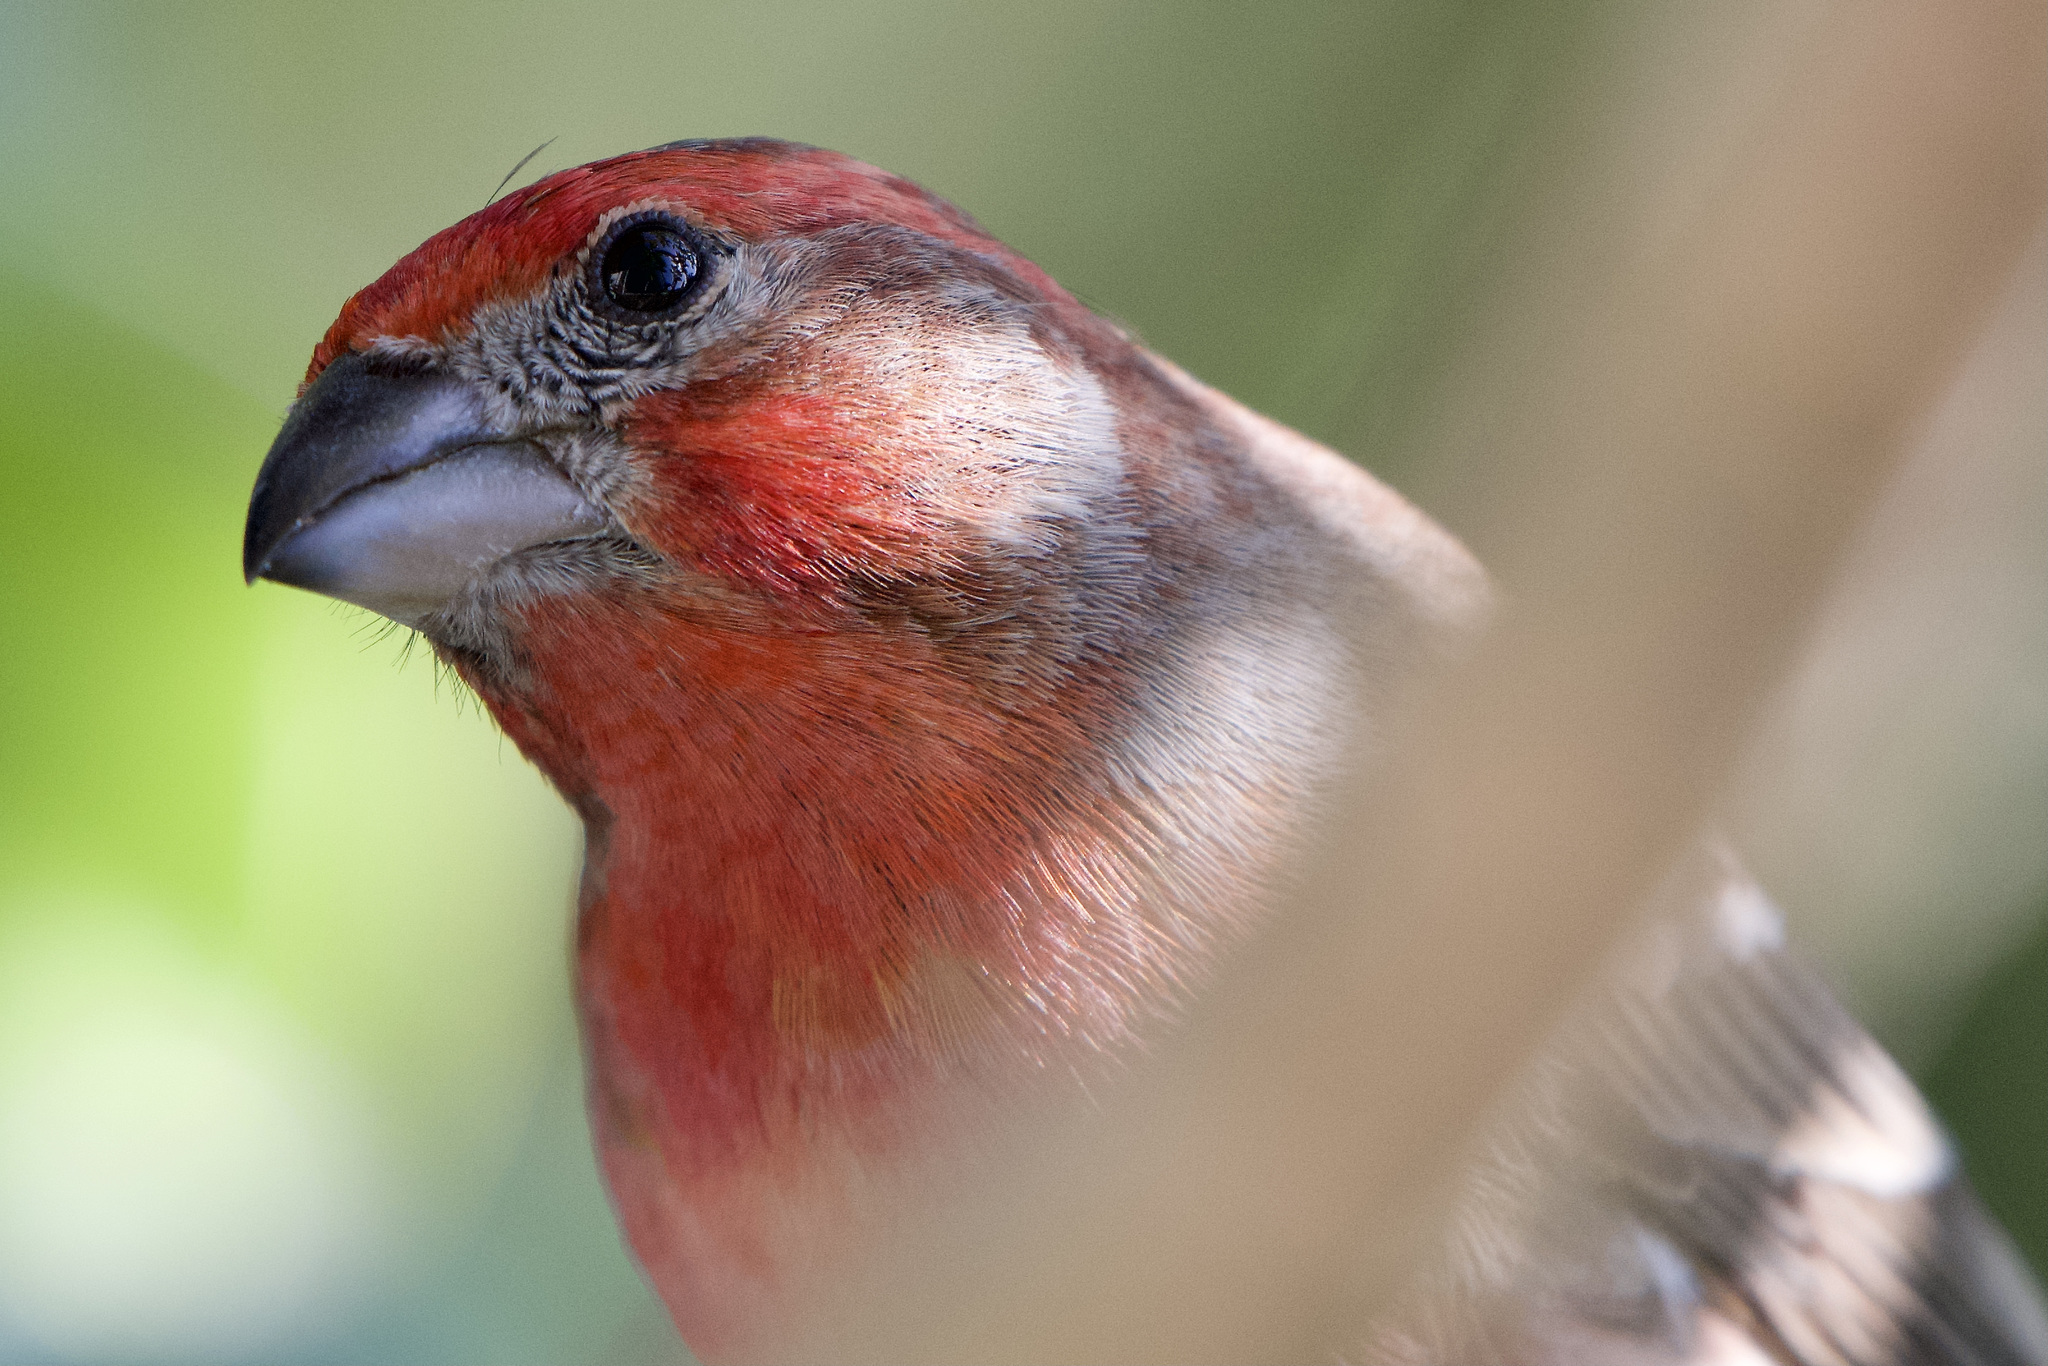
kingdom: Animalia
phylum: Chordata
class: Aves
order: Passeriformes
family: Fringillidae
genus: Haemorhous
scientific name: Haemorhous mexicanus
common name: House finch
